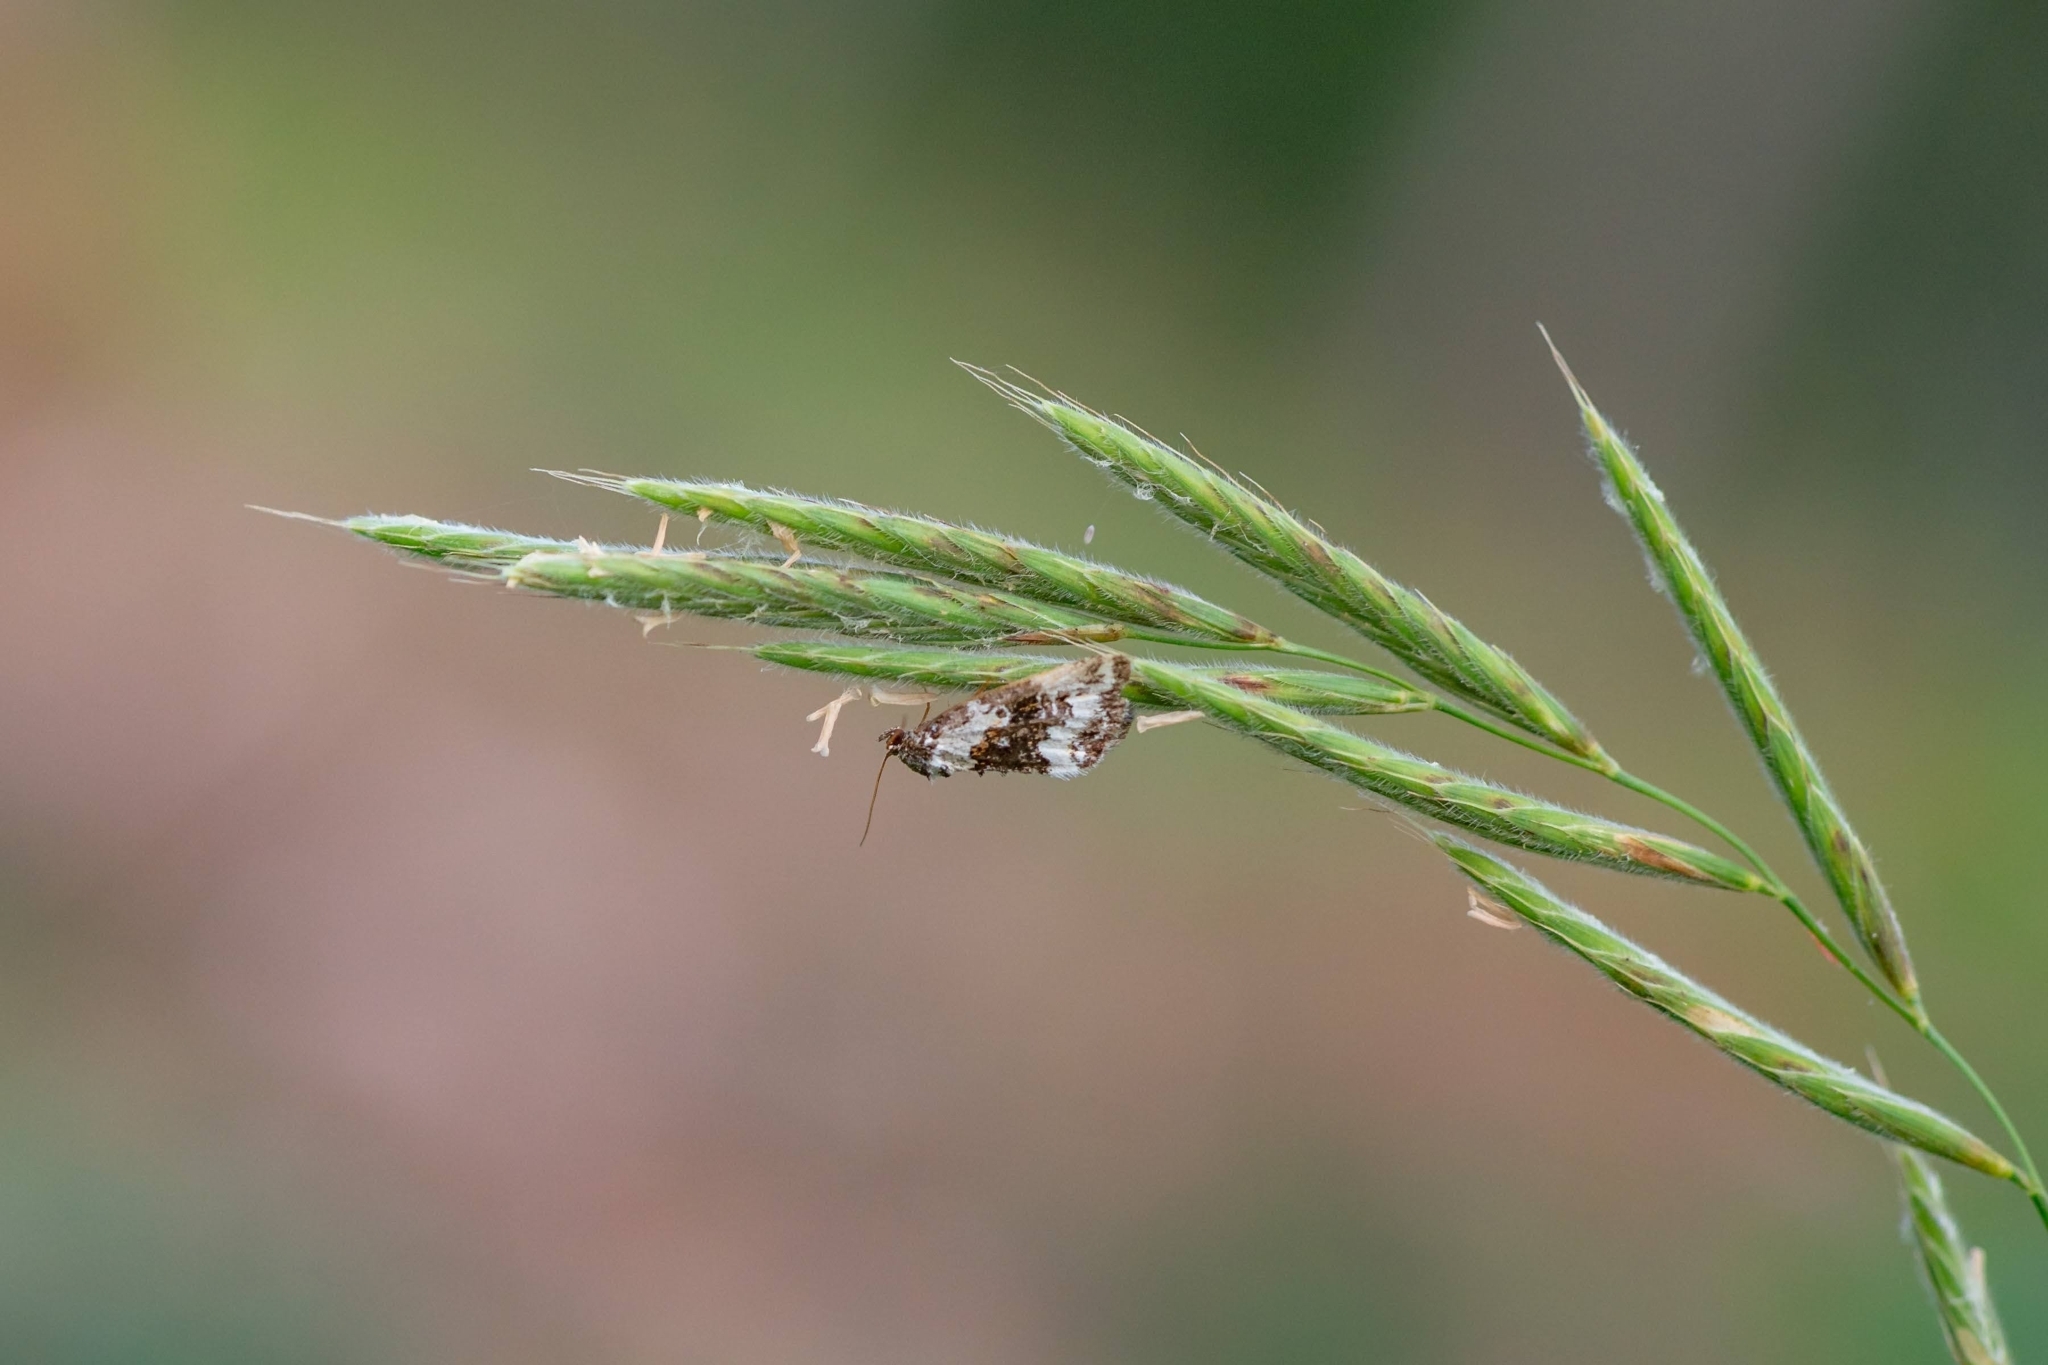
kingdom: Animalia
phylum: Arthropoda
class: Insecta
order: Lepidoptera
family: Noctuidae
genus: Deltote
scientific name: Deltote deceptoria
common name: Pretty marbled
